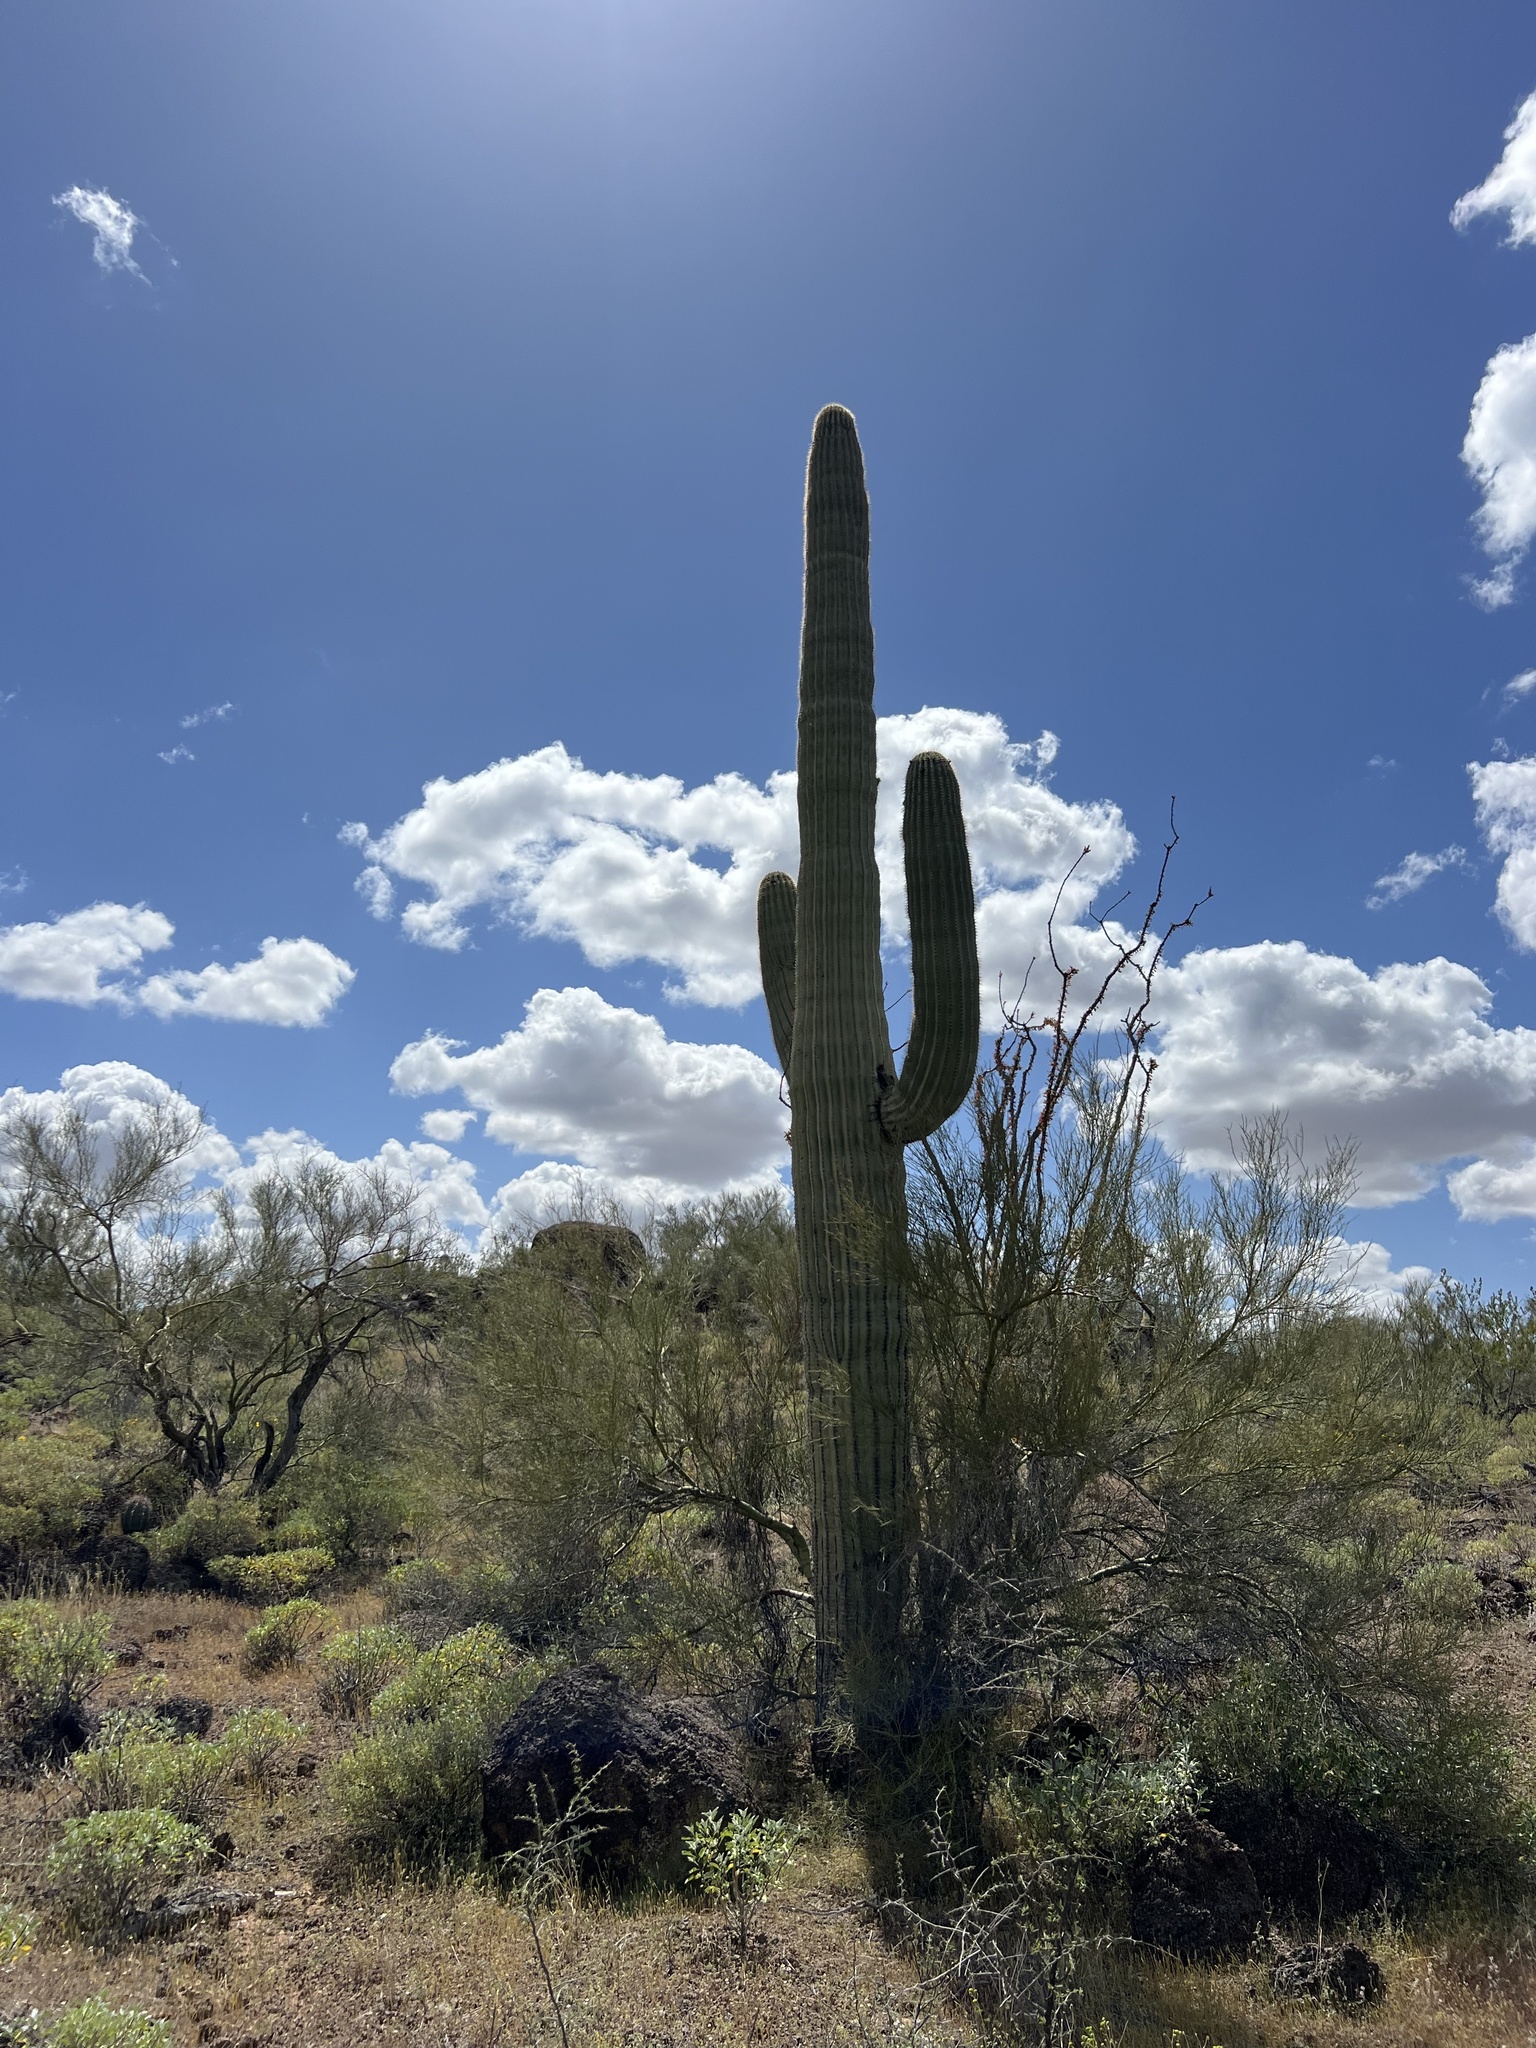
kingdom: Plantae
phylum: Tracheophyta
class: Magnoliopsida
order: Caryophyllales
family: Cactaceae
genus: Carnegiea
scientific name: Carnegiea gigantea
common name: Saguaro
